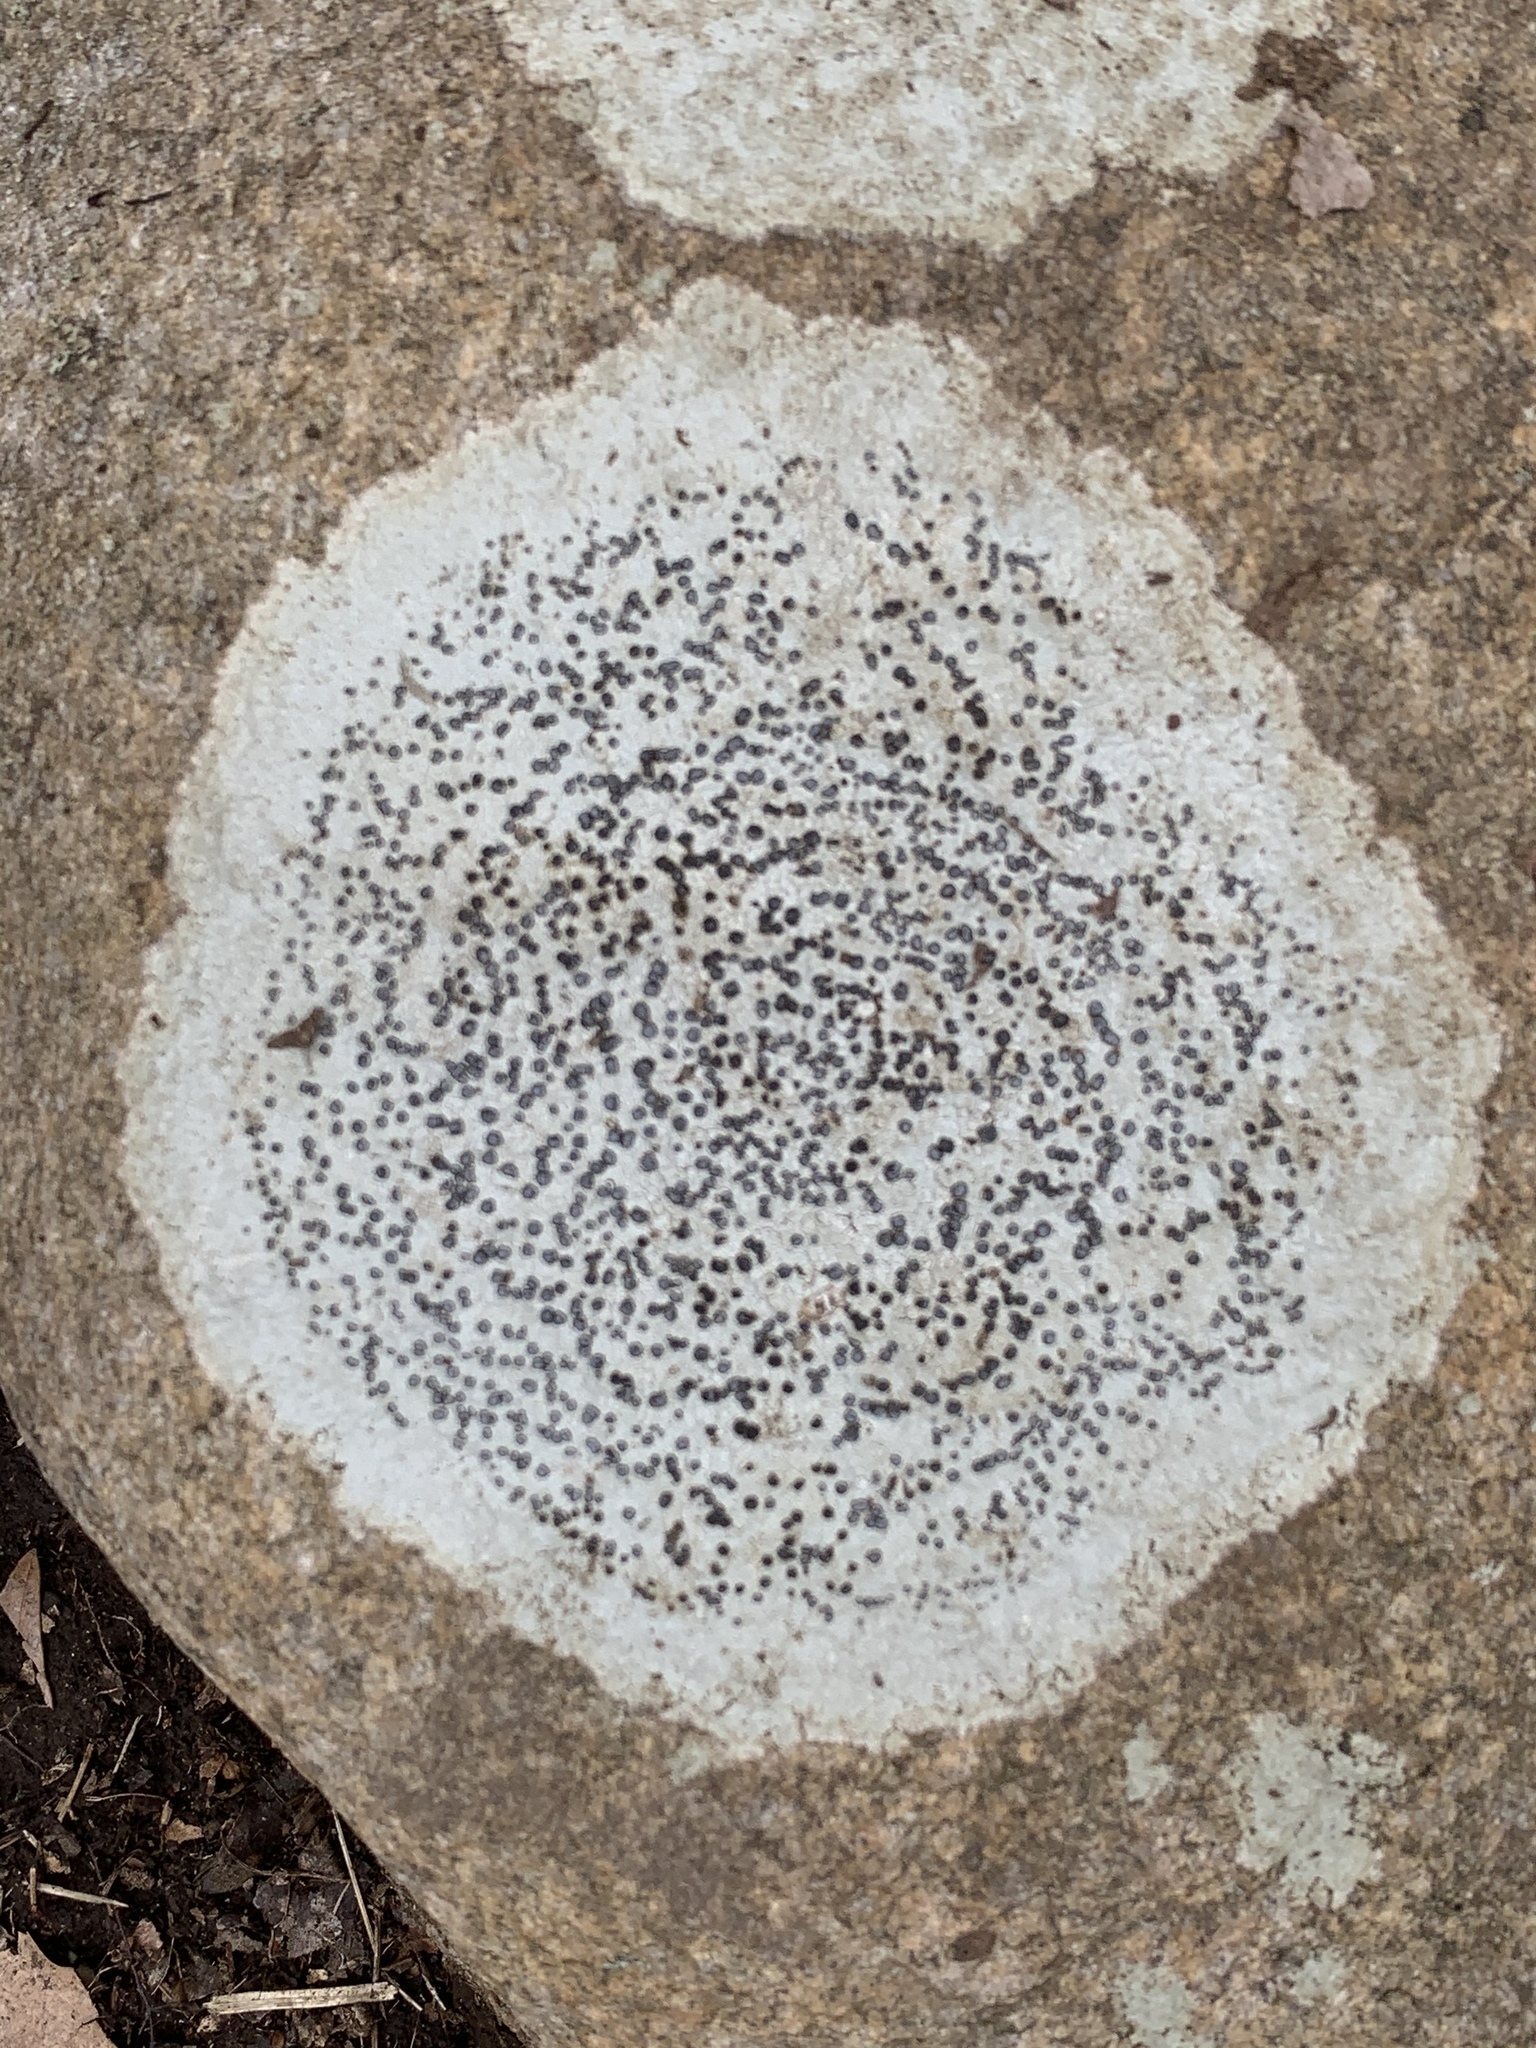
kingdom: Fungi
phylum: Ascomycota
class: Lecanoromycetes
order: Lecideales
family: Lecideaceae
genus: Porpidia
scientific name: Porpidia albocaerulescens
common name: Smokey-eyed boulder lichen
